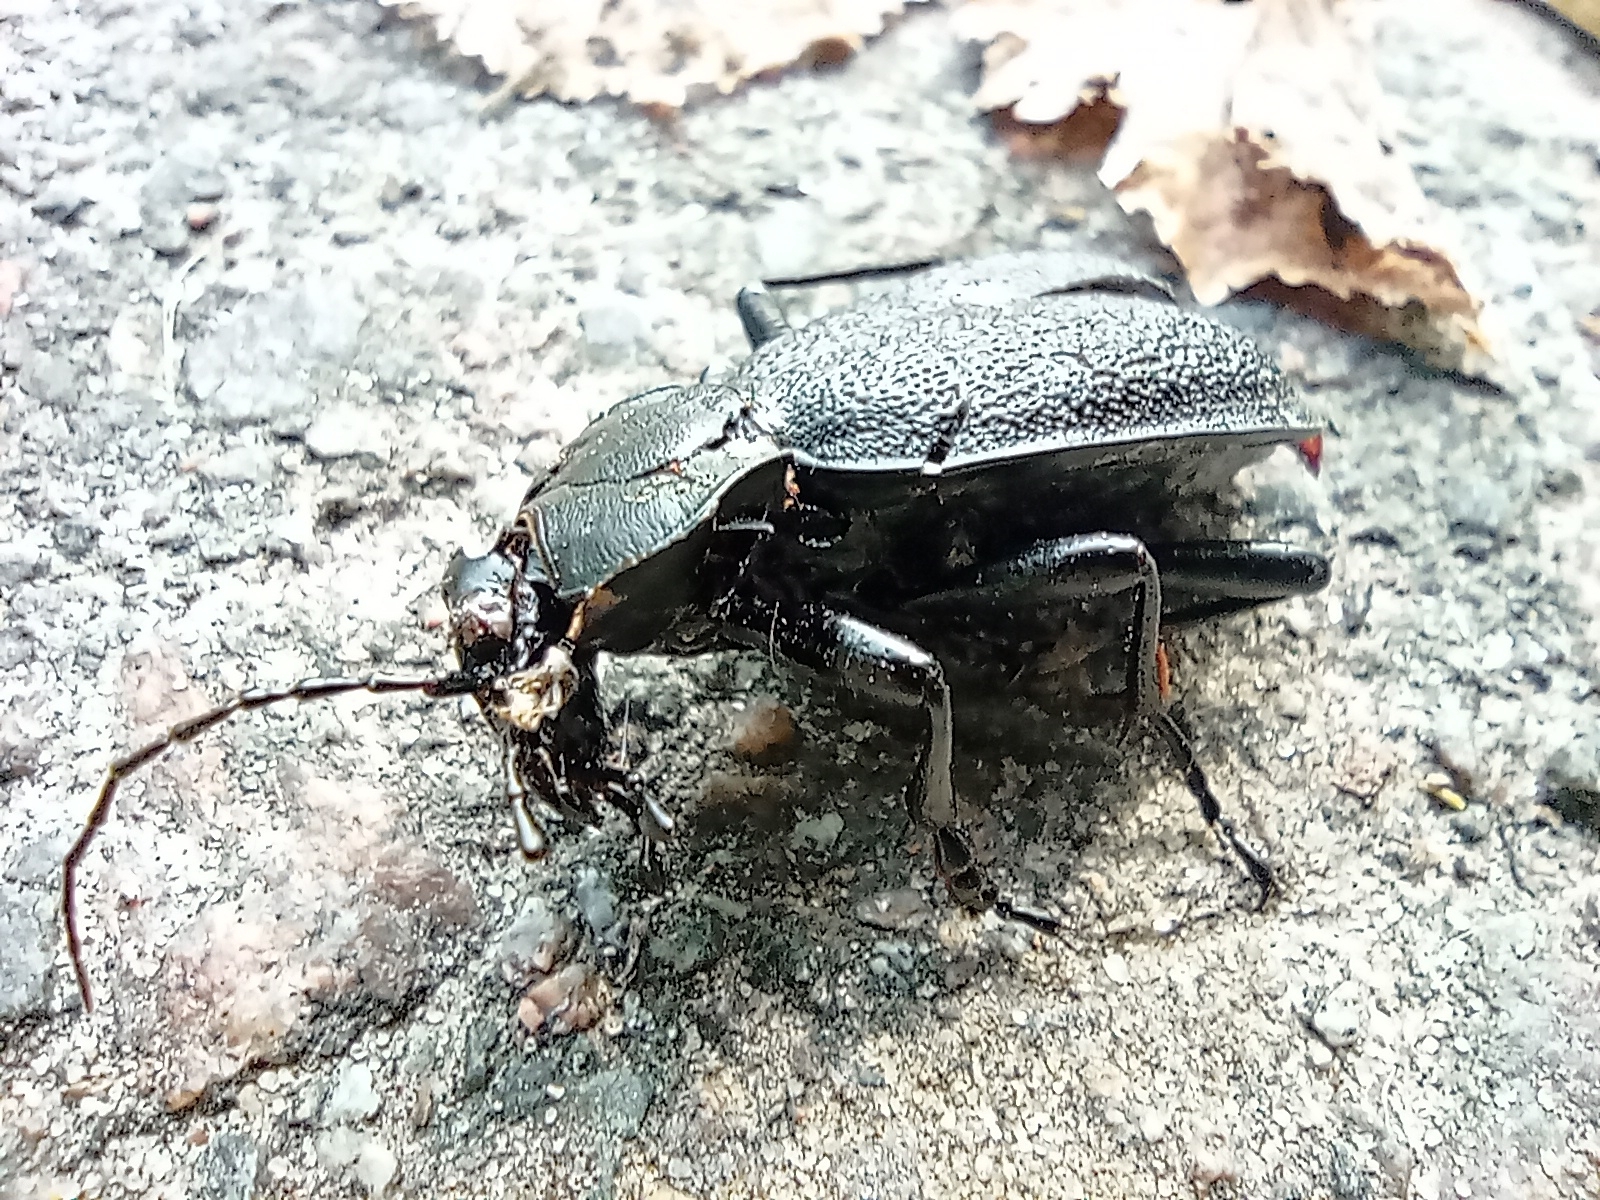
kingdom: Animalia
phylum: Arthropoda
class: Insecta
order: Coleoptera
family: Carabidae
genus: Carabus
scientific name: Carabus coriaceus
